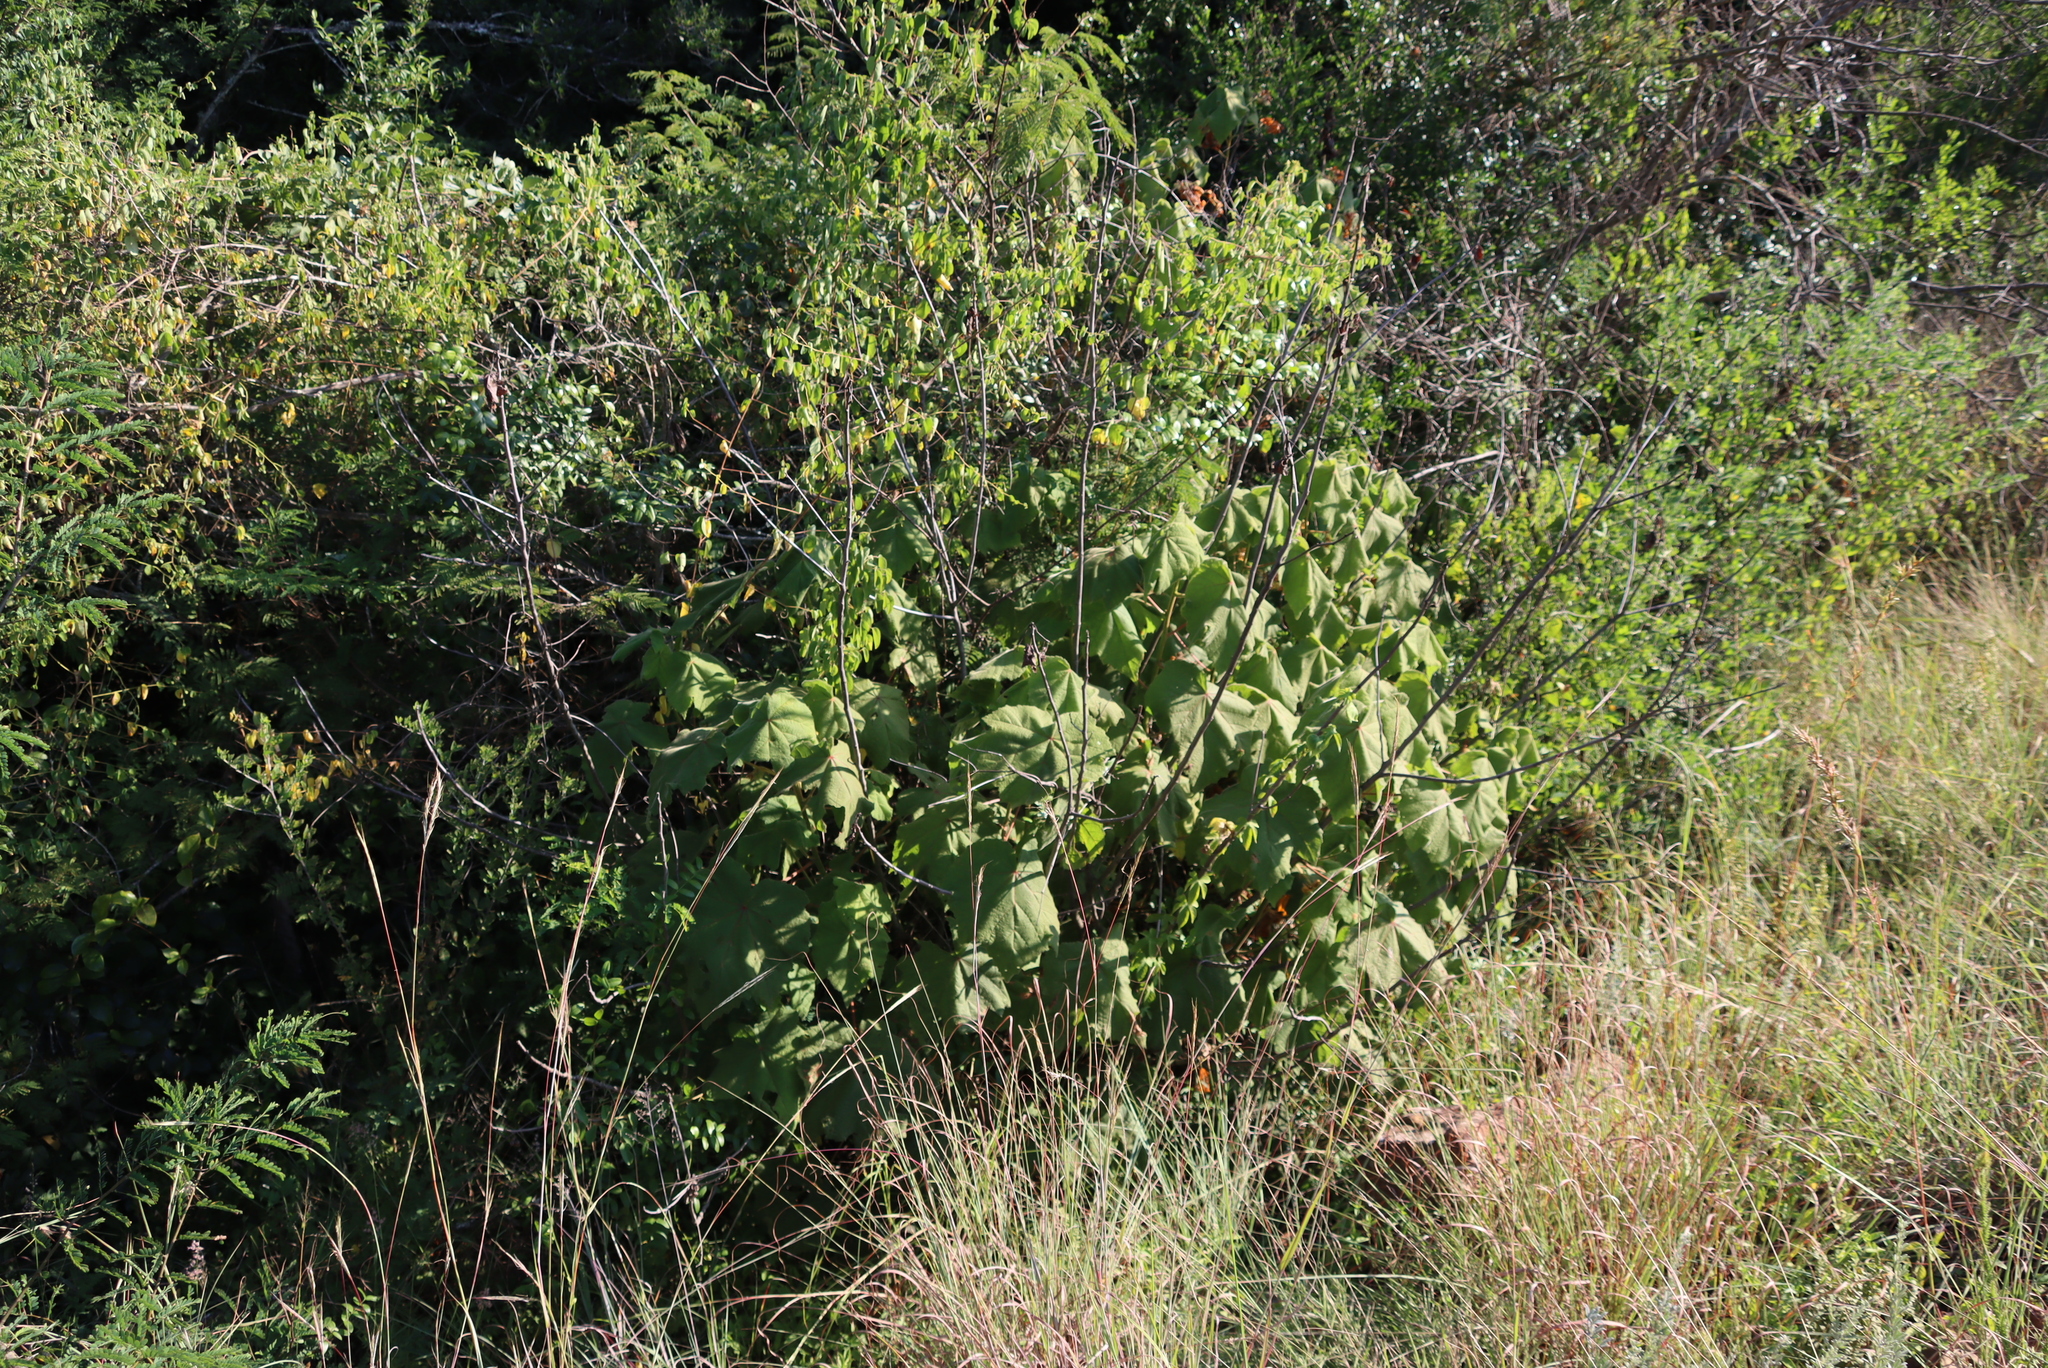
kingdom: Plantae
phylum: Tracheophyta
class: Magnoliopsida
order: Malvales
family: Malvaceae
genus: Dombeya
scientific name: Dombeya burgessiae
